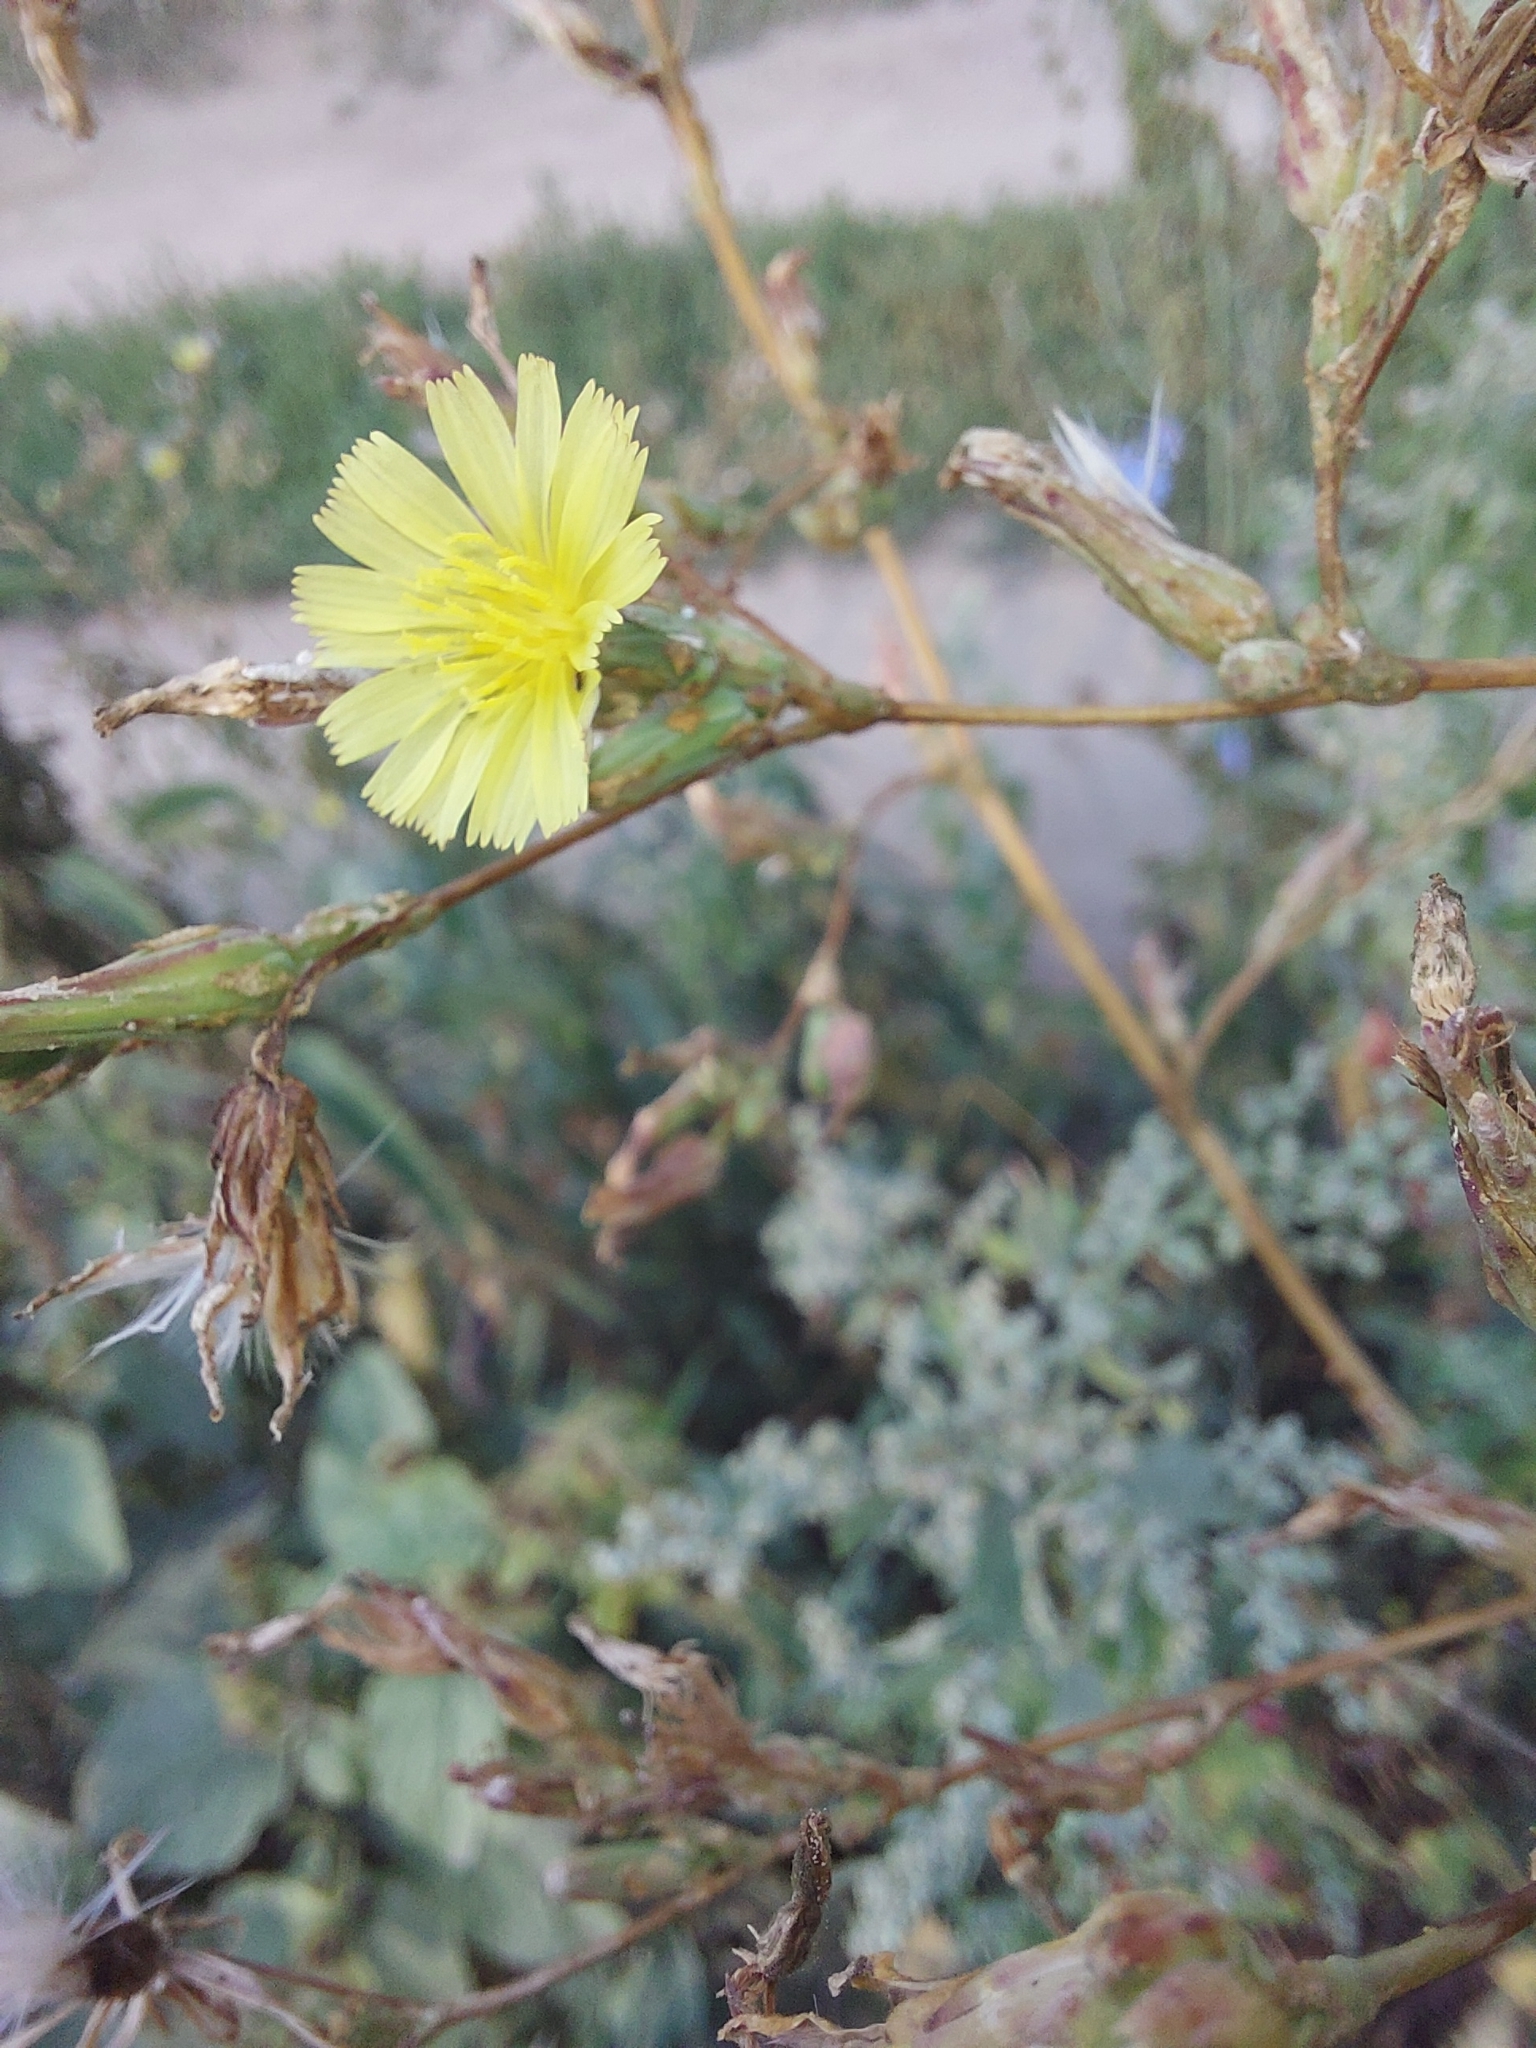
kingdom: Plantae
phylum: Tracheophyta
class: Magnoliopsida
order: Asterales
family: Asteraceae
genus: Lactuca
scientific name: Lactuca serriola
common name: Prickly lettuce
